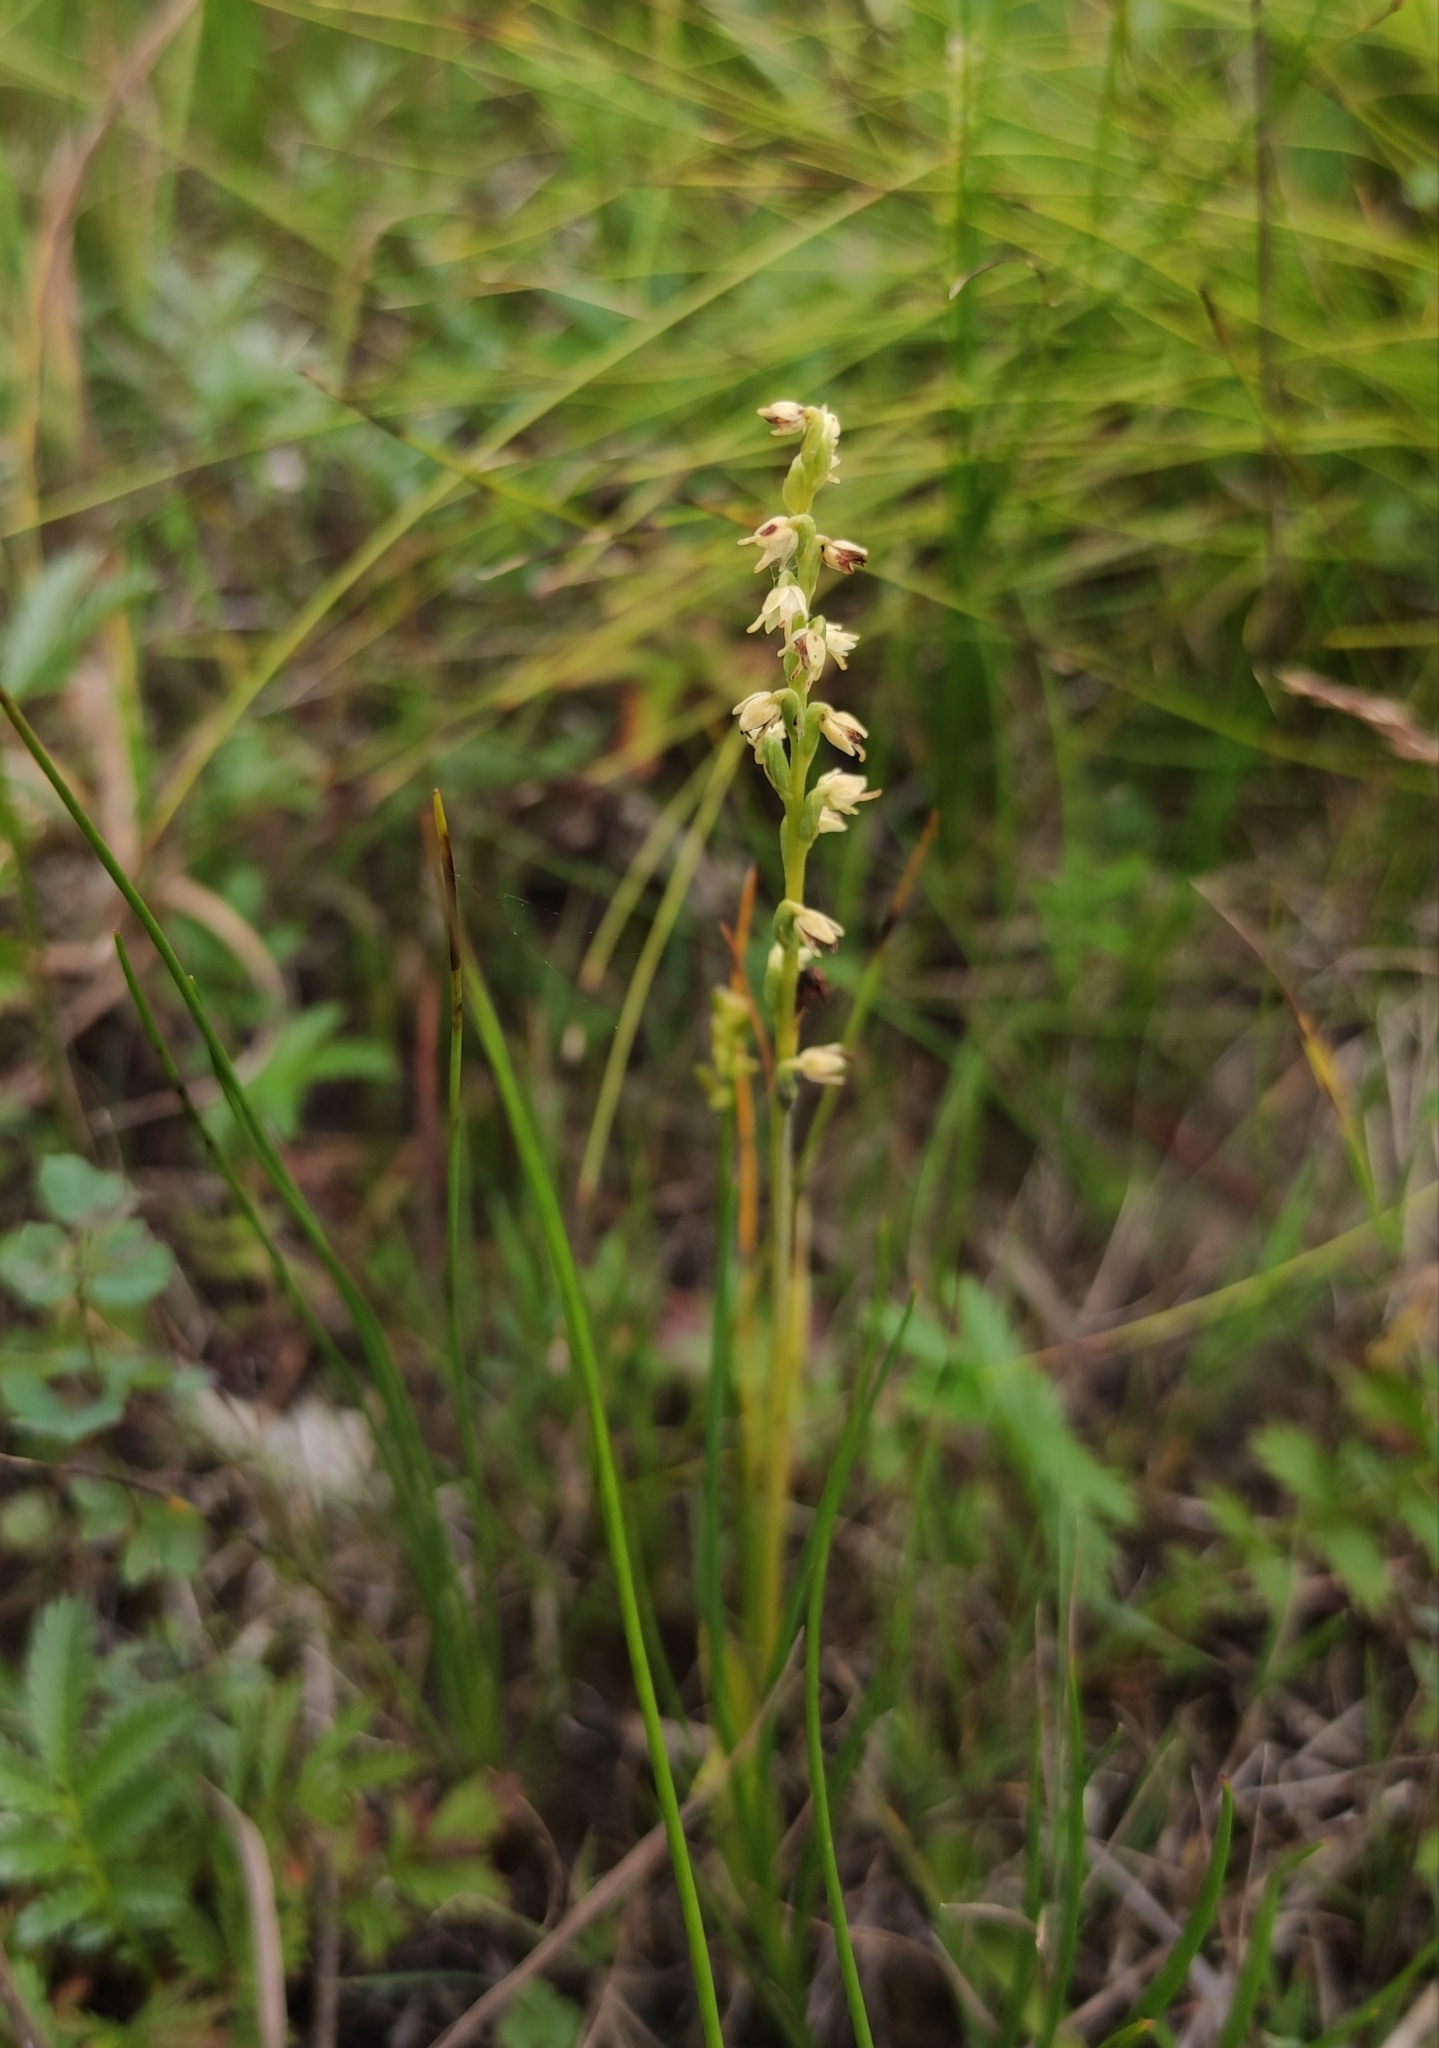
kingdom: Plantae
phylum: Tracheophyta
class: Liliopsida
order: Asparagales
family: Orchidaceae
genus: Herminium
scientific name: Herminium monorchis
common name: Musk orchid
